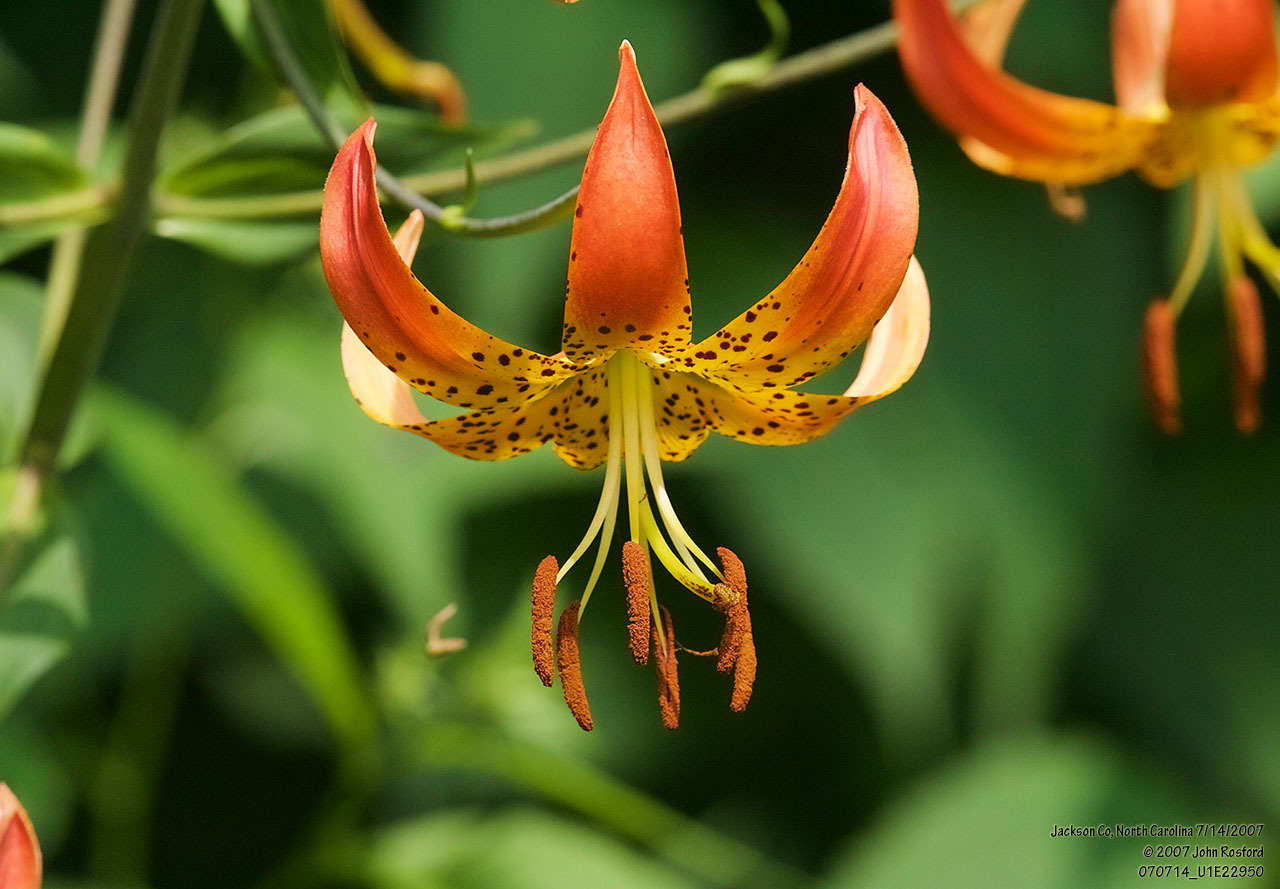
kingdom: Plantae
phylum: Tracheophyta
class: Liliopsida
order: Liliales
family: Liliaceae
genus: Lilium
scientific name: Lilium superbum
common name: American turk's-cap lily
